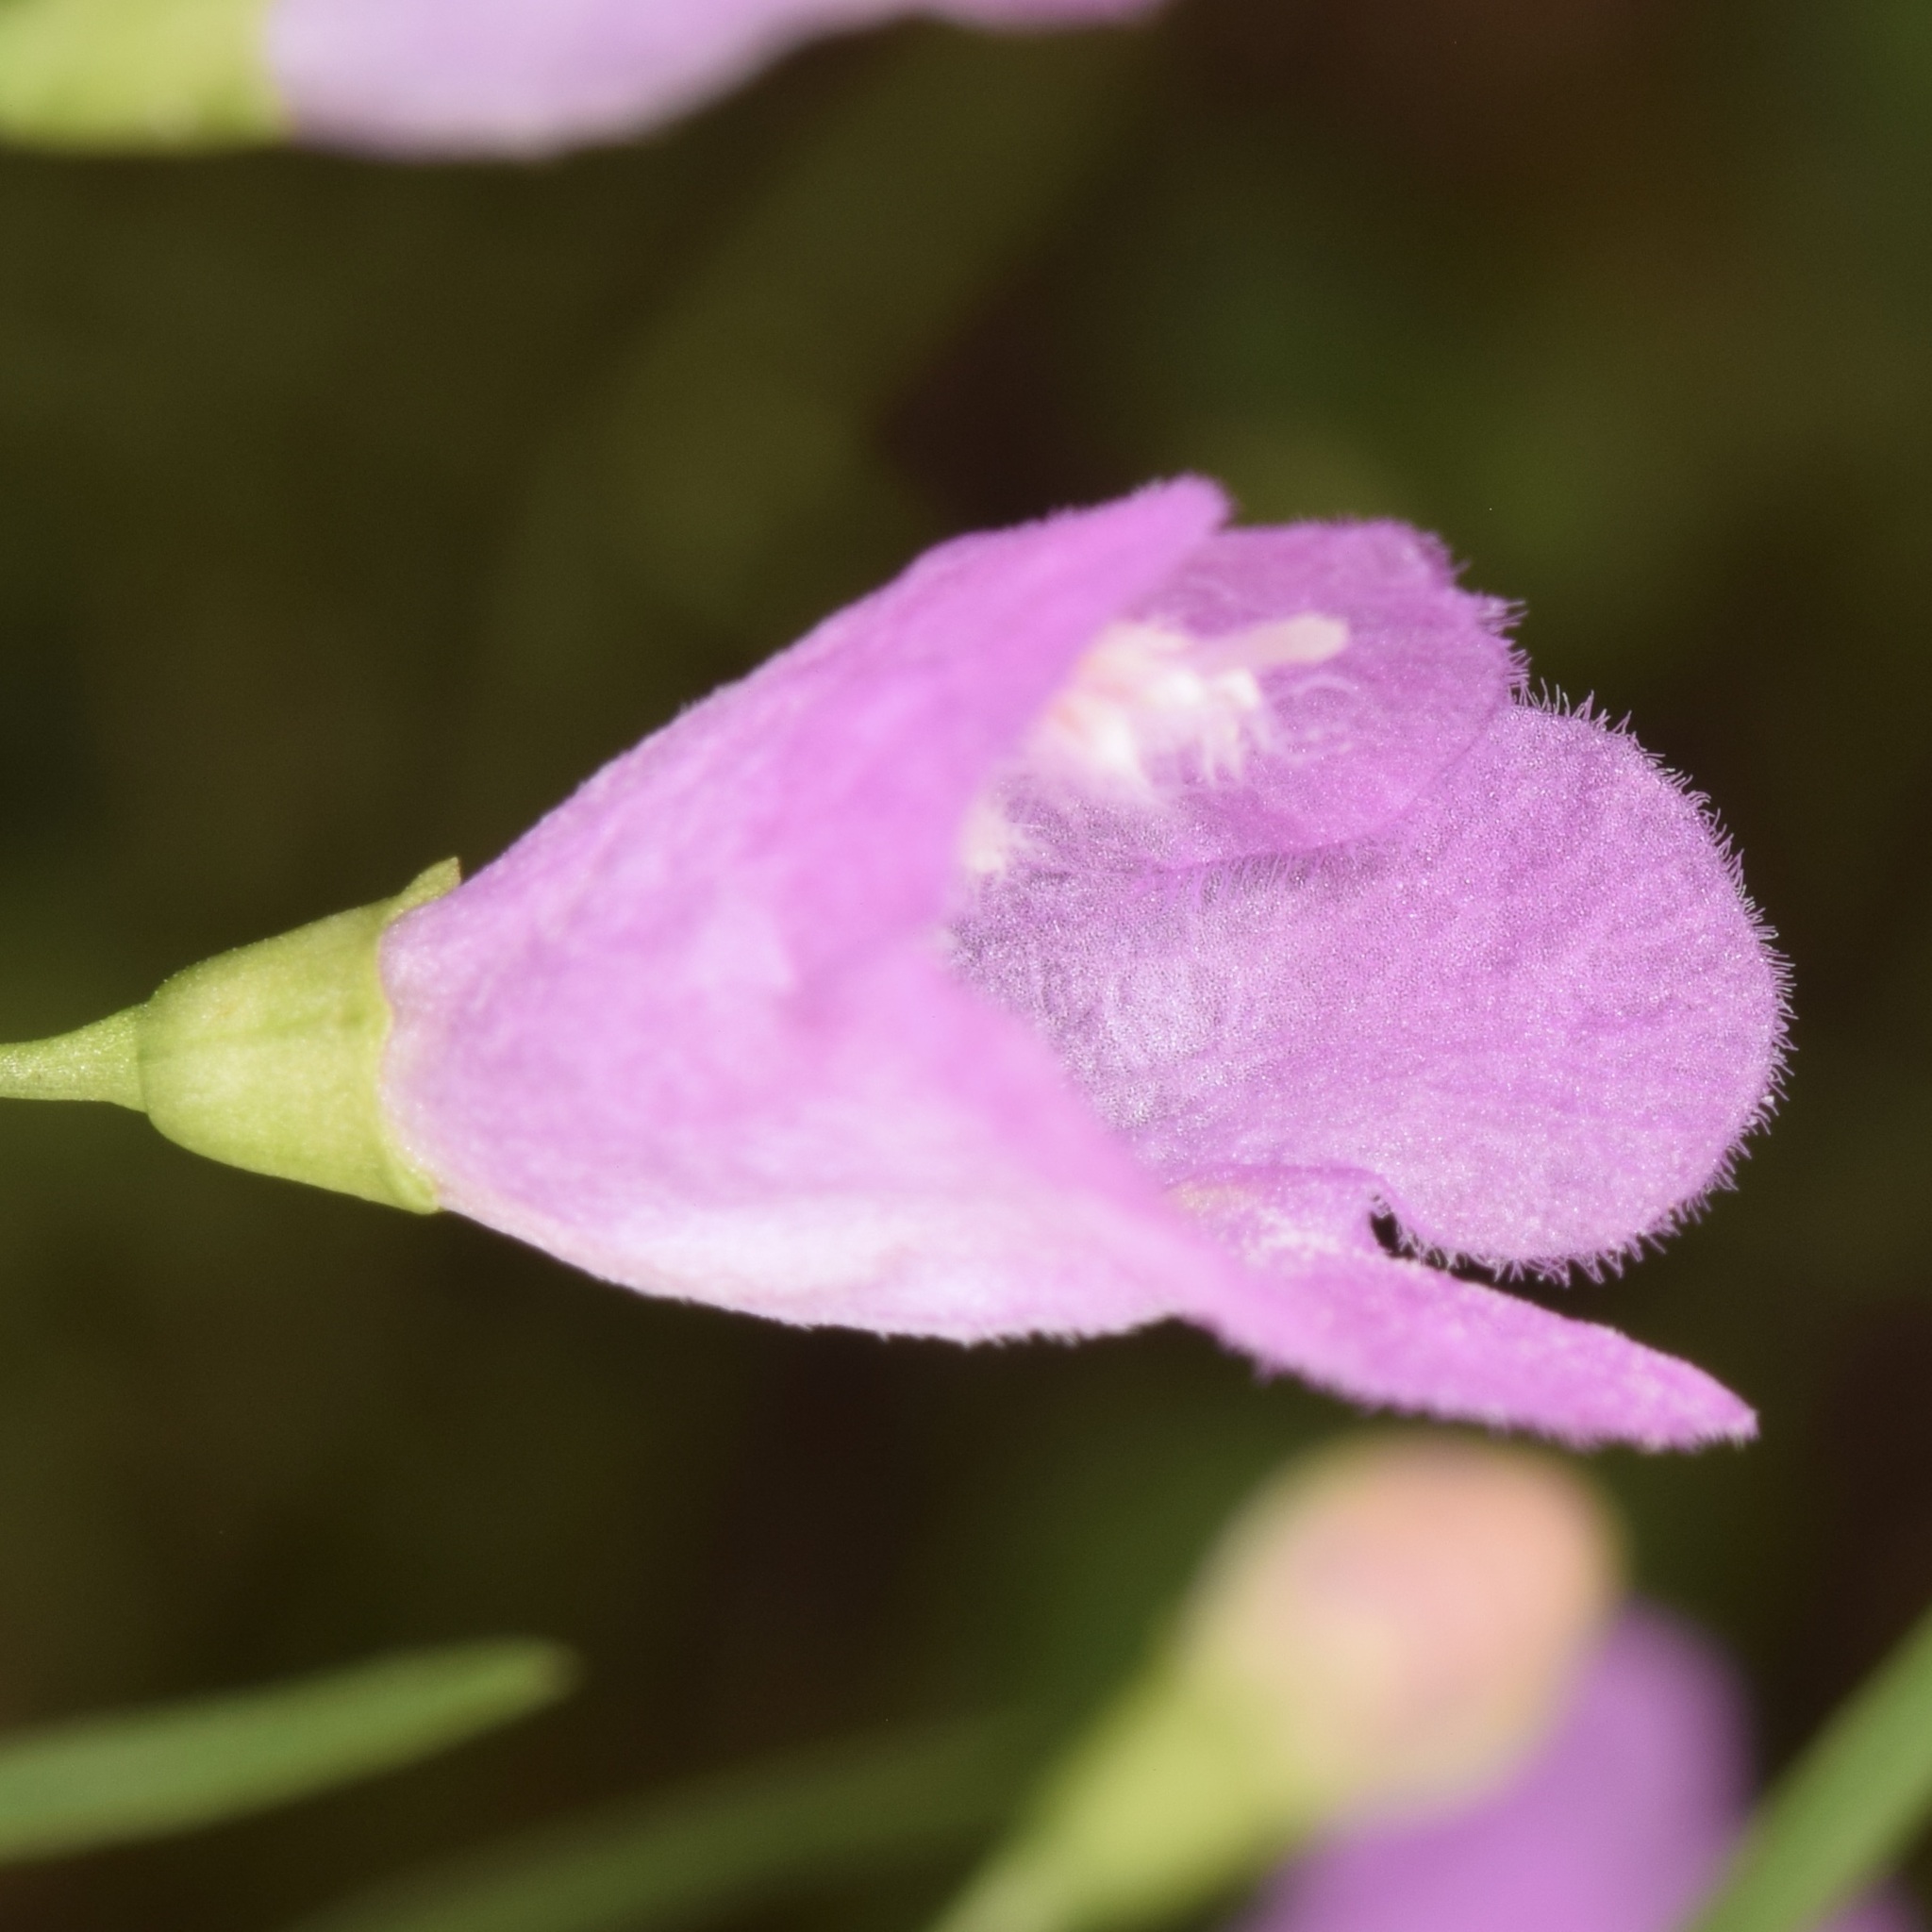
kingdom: Plantae
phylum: Tracheophyta
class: Magnoliopsida
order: Lamiales
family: Orobanchaceae
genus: Agalinis
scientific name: Agalinis tenuifolia
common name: Slender agalinis
